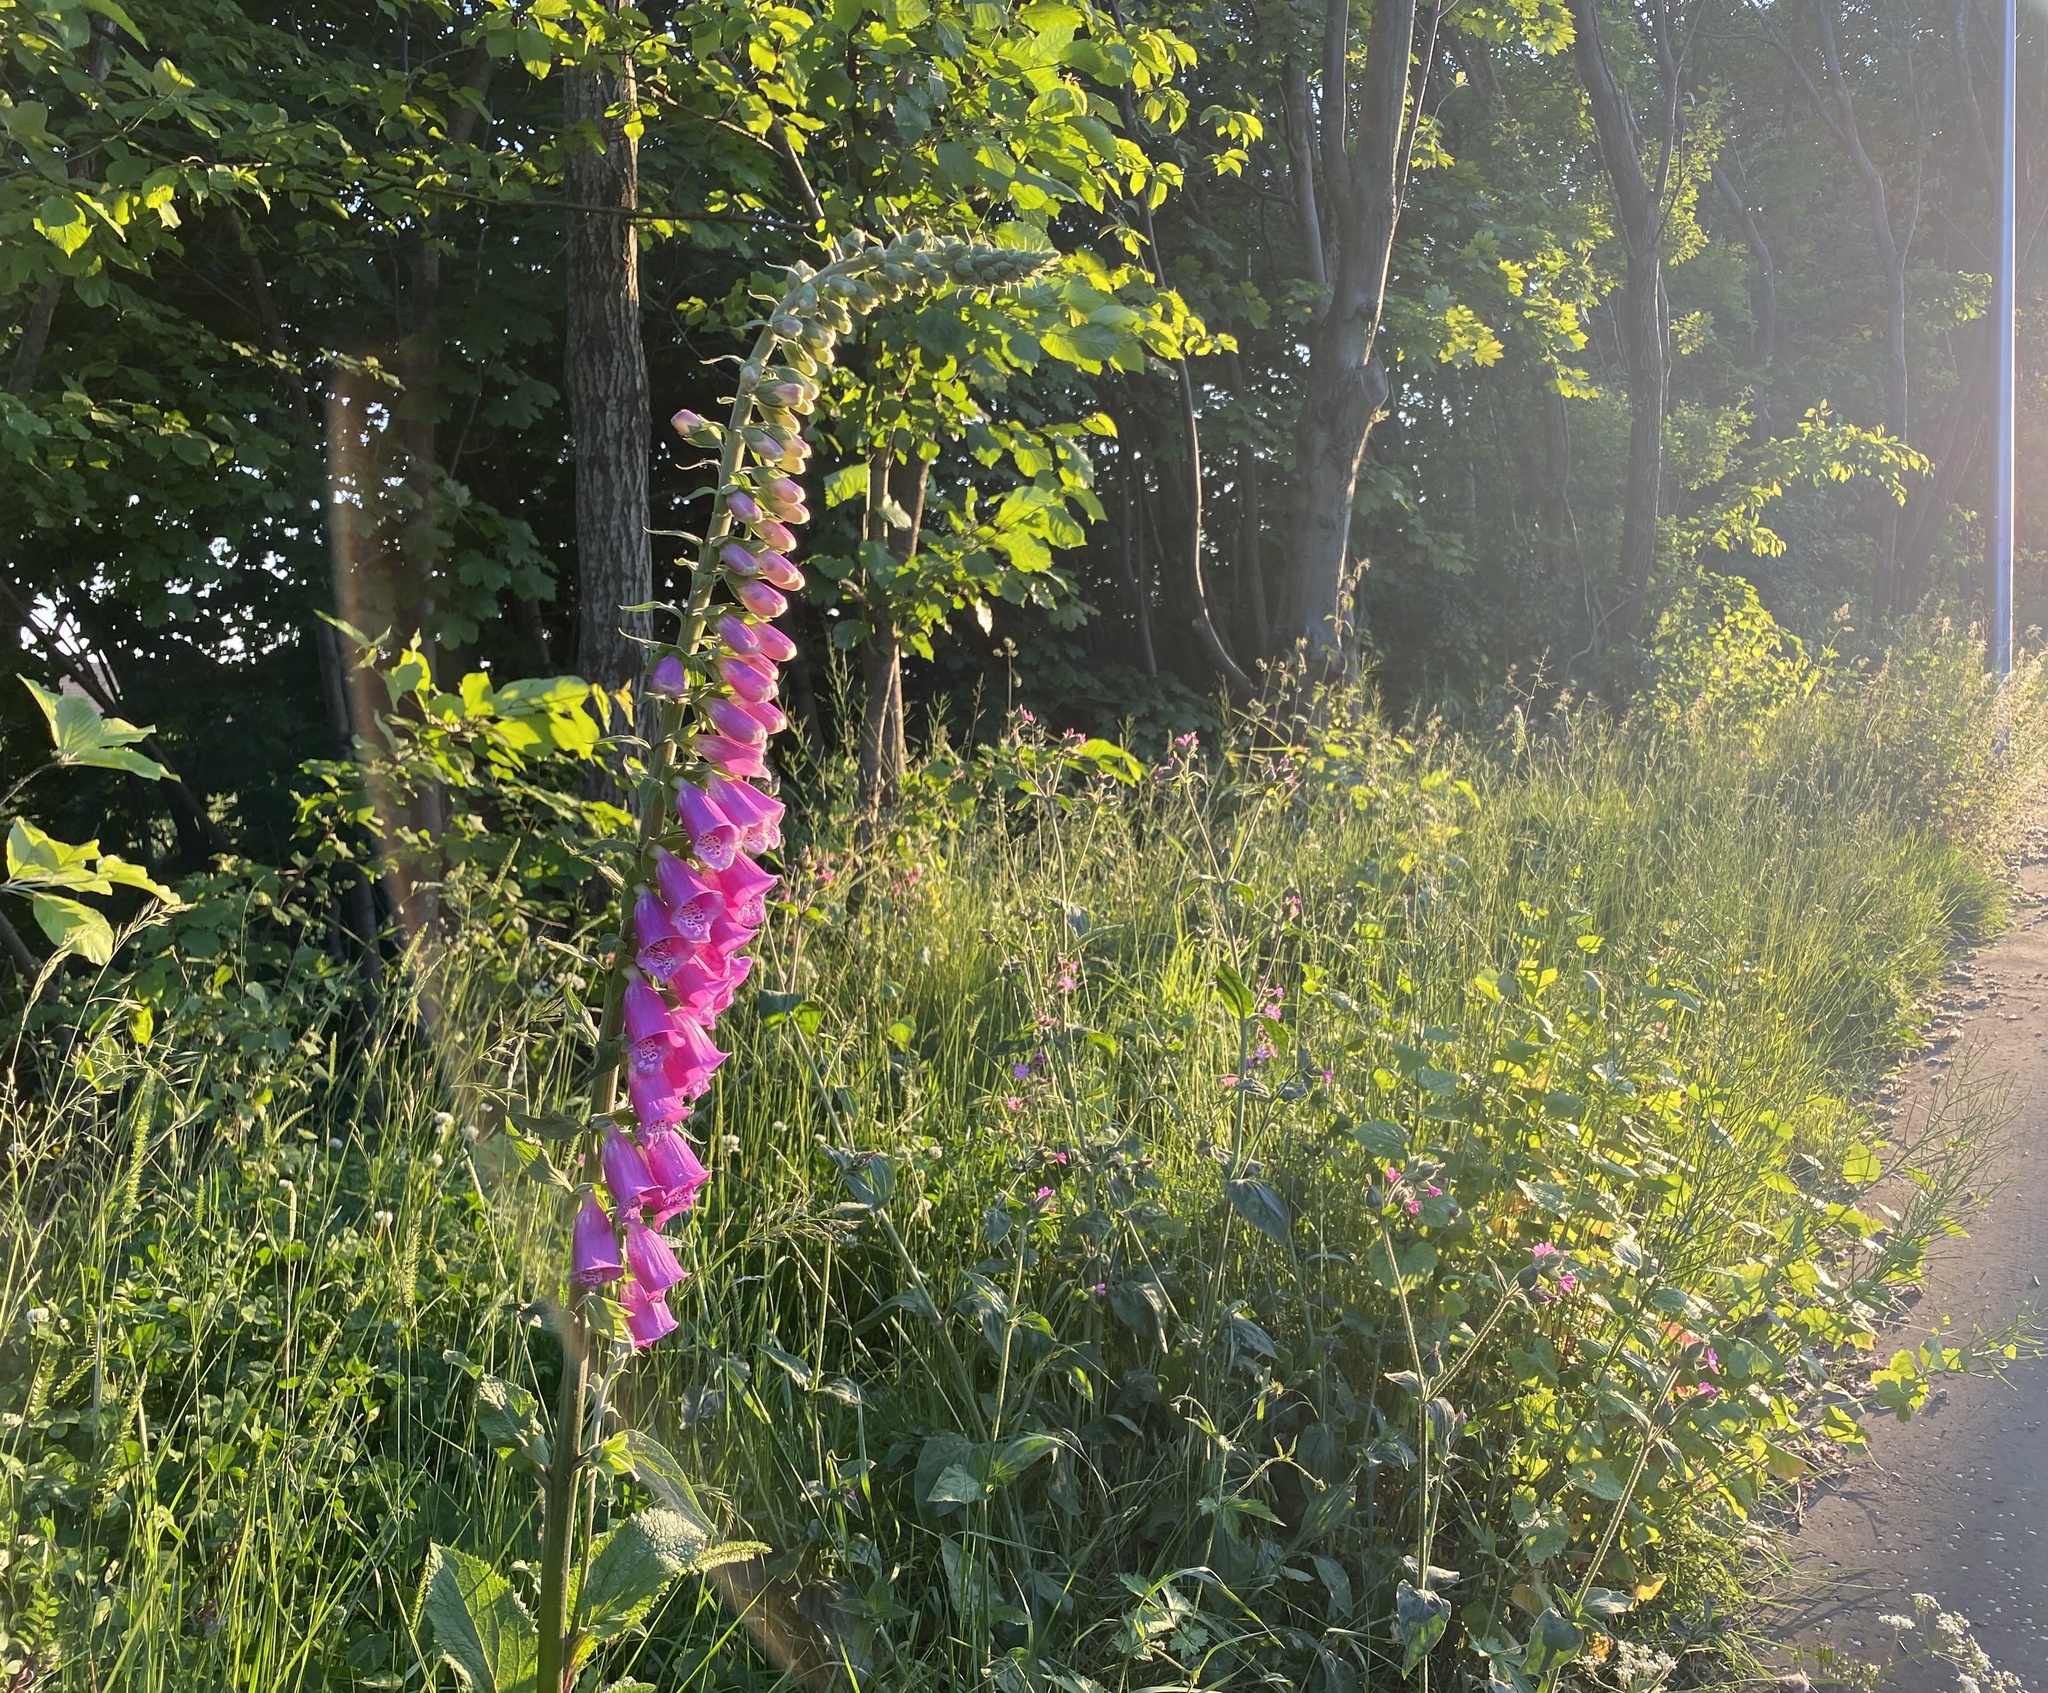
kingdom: Plantae
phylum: Tracheophyta
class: Magnoliopsida
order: Lamiales
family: Plantaginaceae
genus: Digitalis
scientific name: Digitalis purpurea
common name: Foxglove
